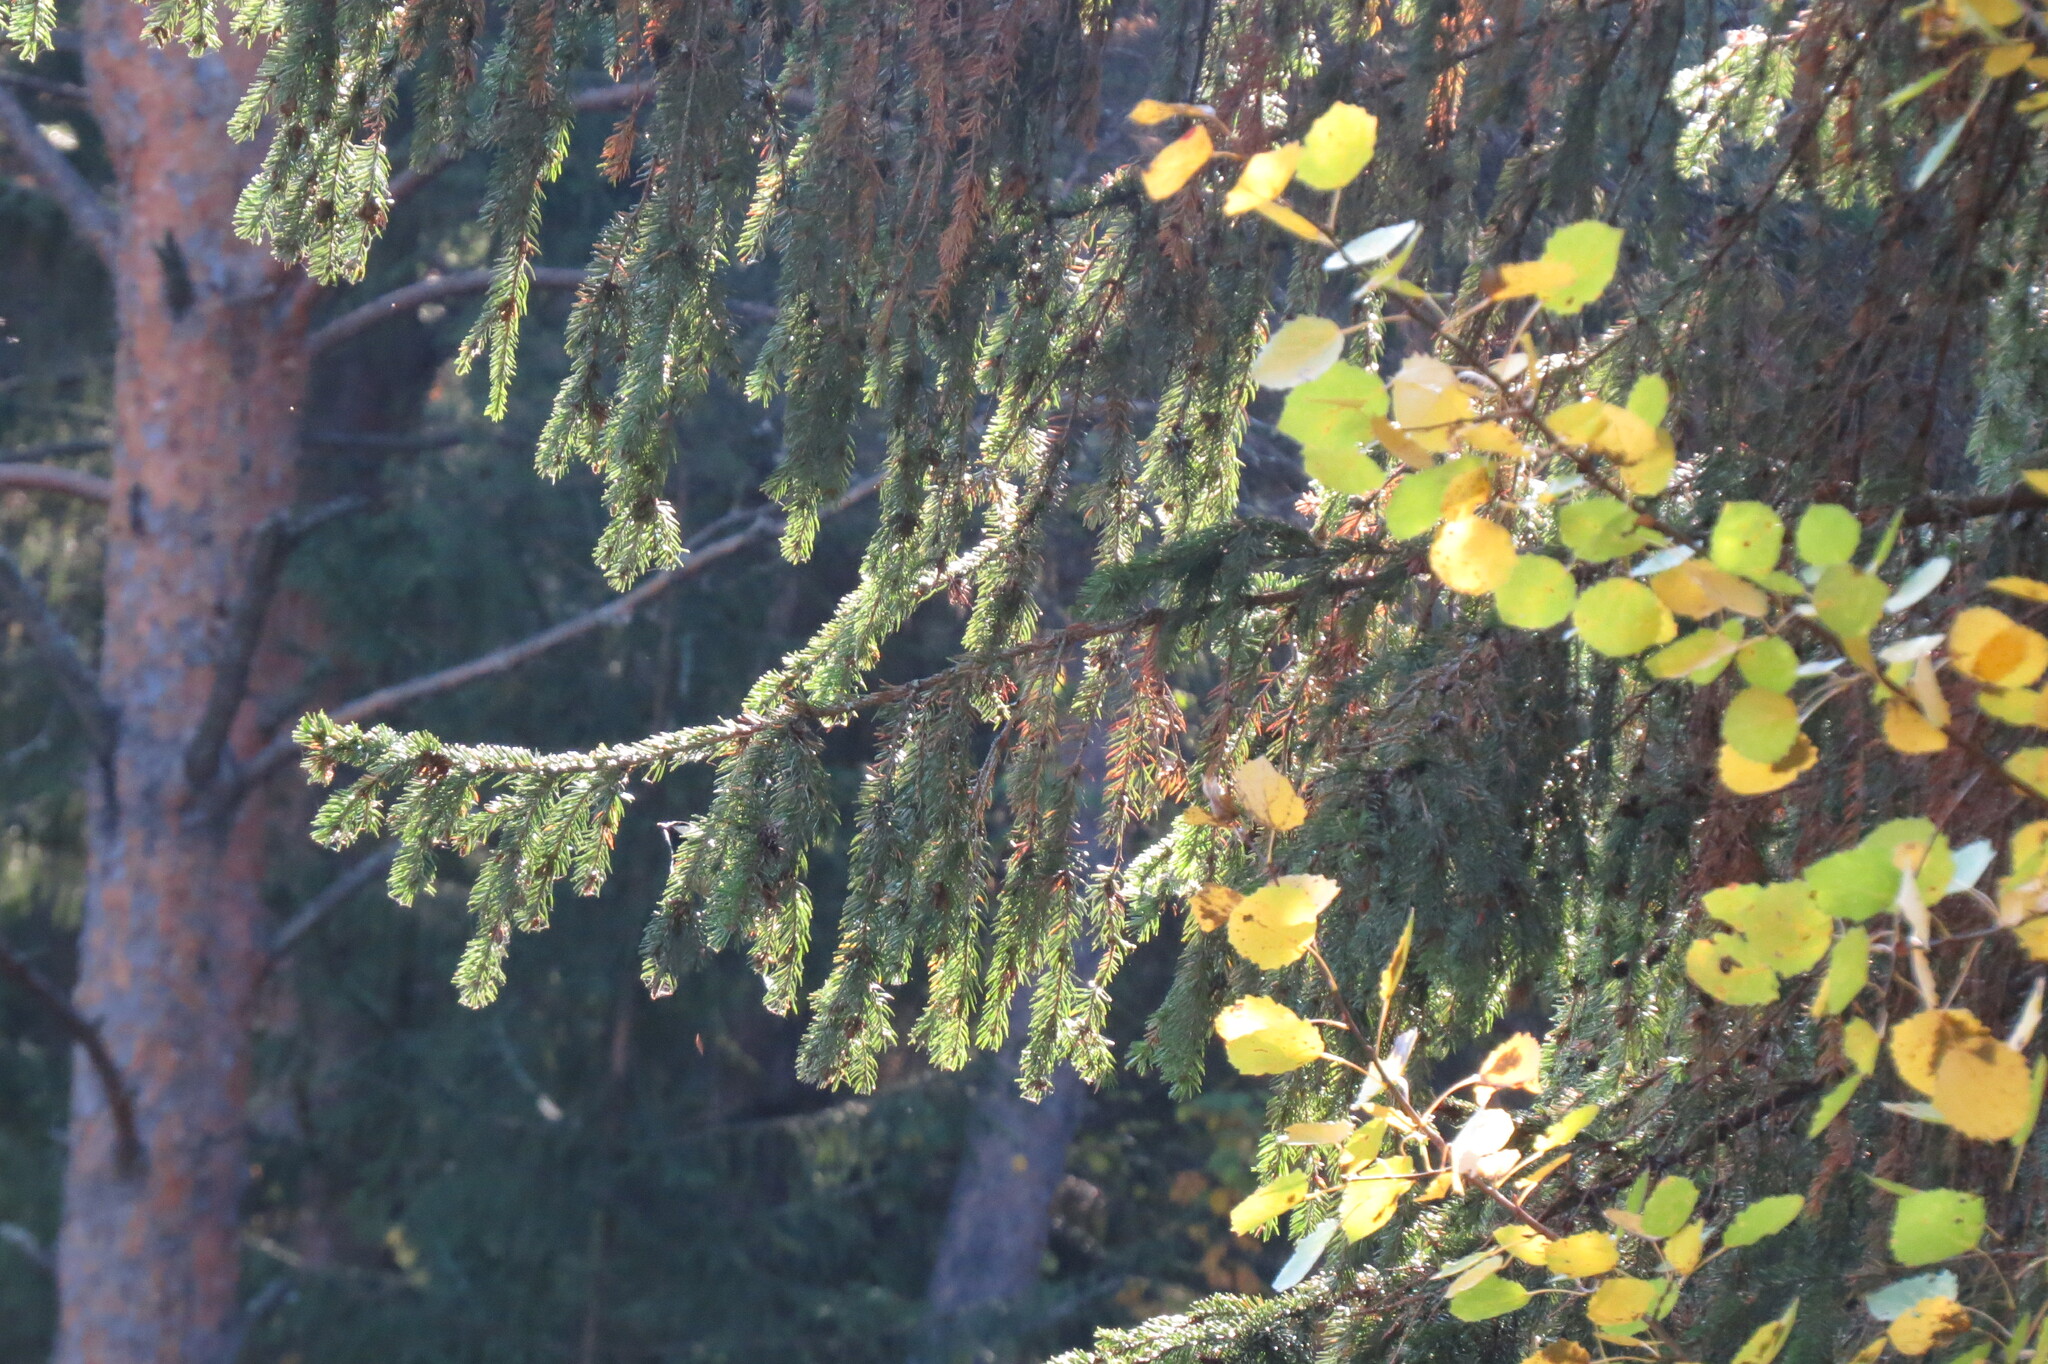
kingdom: Animalia
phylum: Chordata
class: Aves
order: Passeriformes
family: Paridae
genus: Periparus
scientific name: Periparus ater
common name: Coal tit
